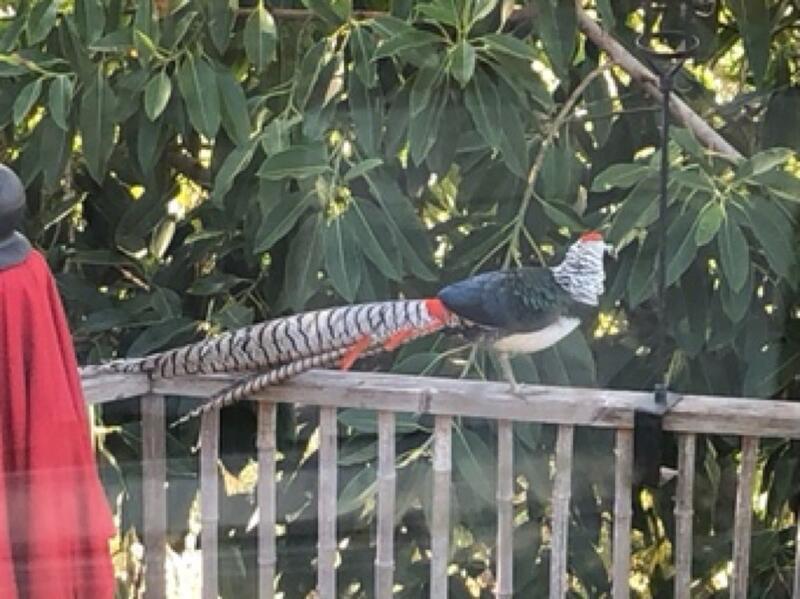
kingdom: Animalia
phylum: Chordata
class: Aves
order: Galliformes
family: Phasianidae
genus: Chrysolophus
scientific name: Chrysolophus amherstiae
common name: Lady amherst's pheasant
